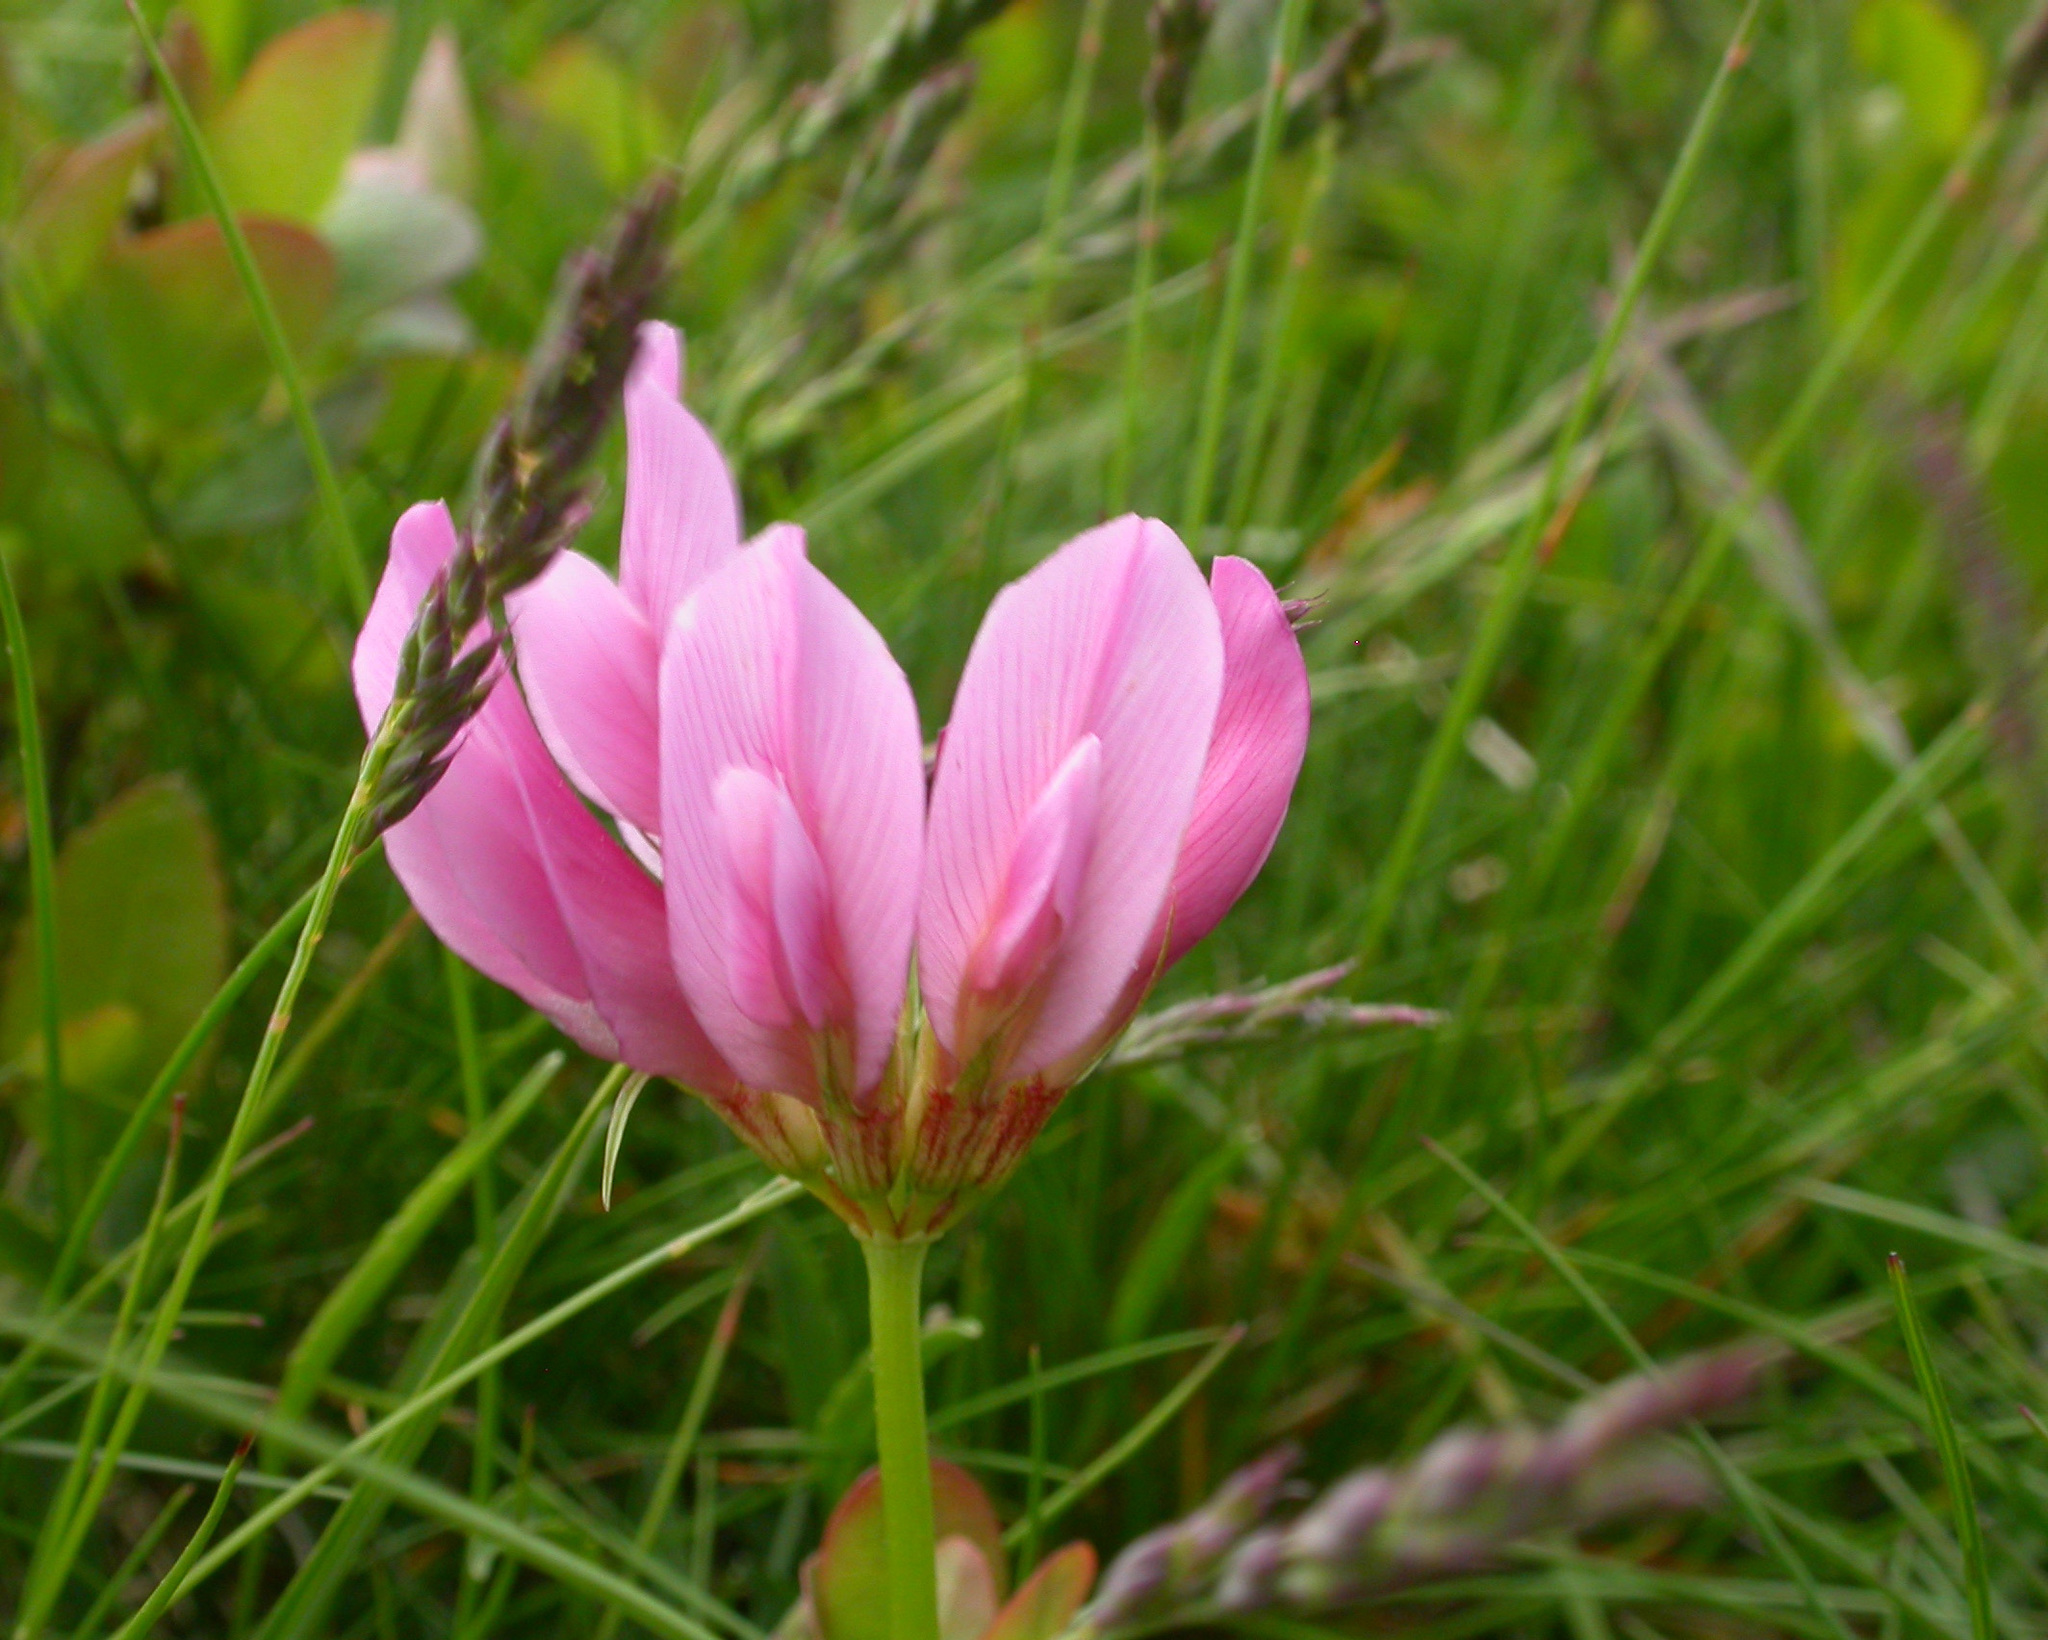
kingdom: Plantae
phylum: Tracheophyta
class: Magnoliopsida
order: Fabales
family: Fabaceae
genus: Trifolium
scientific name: Trifolium alpinum
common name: Alpine clover
